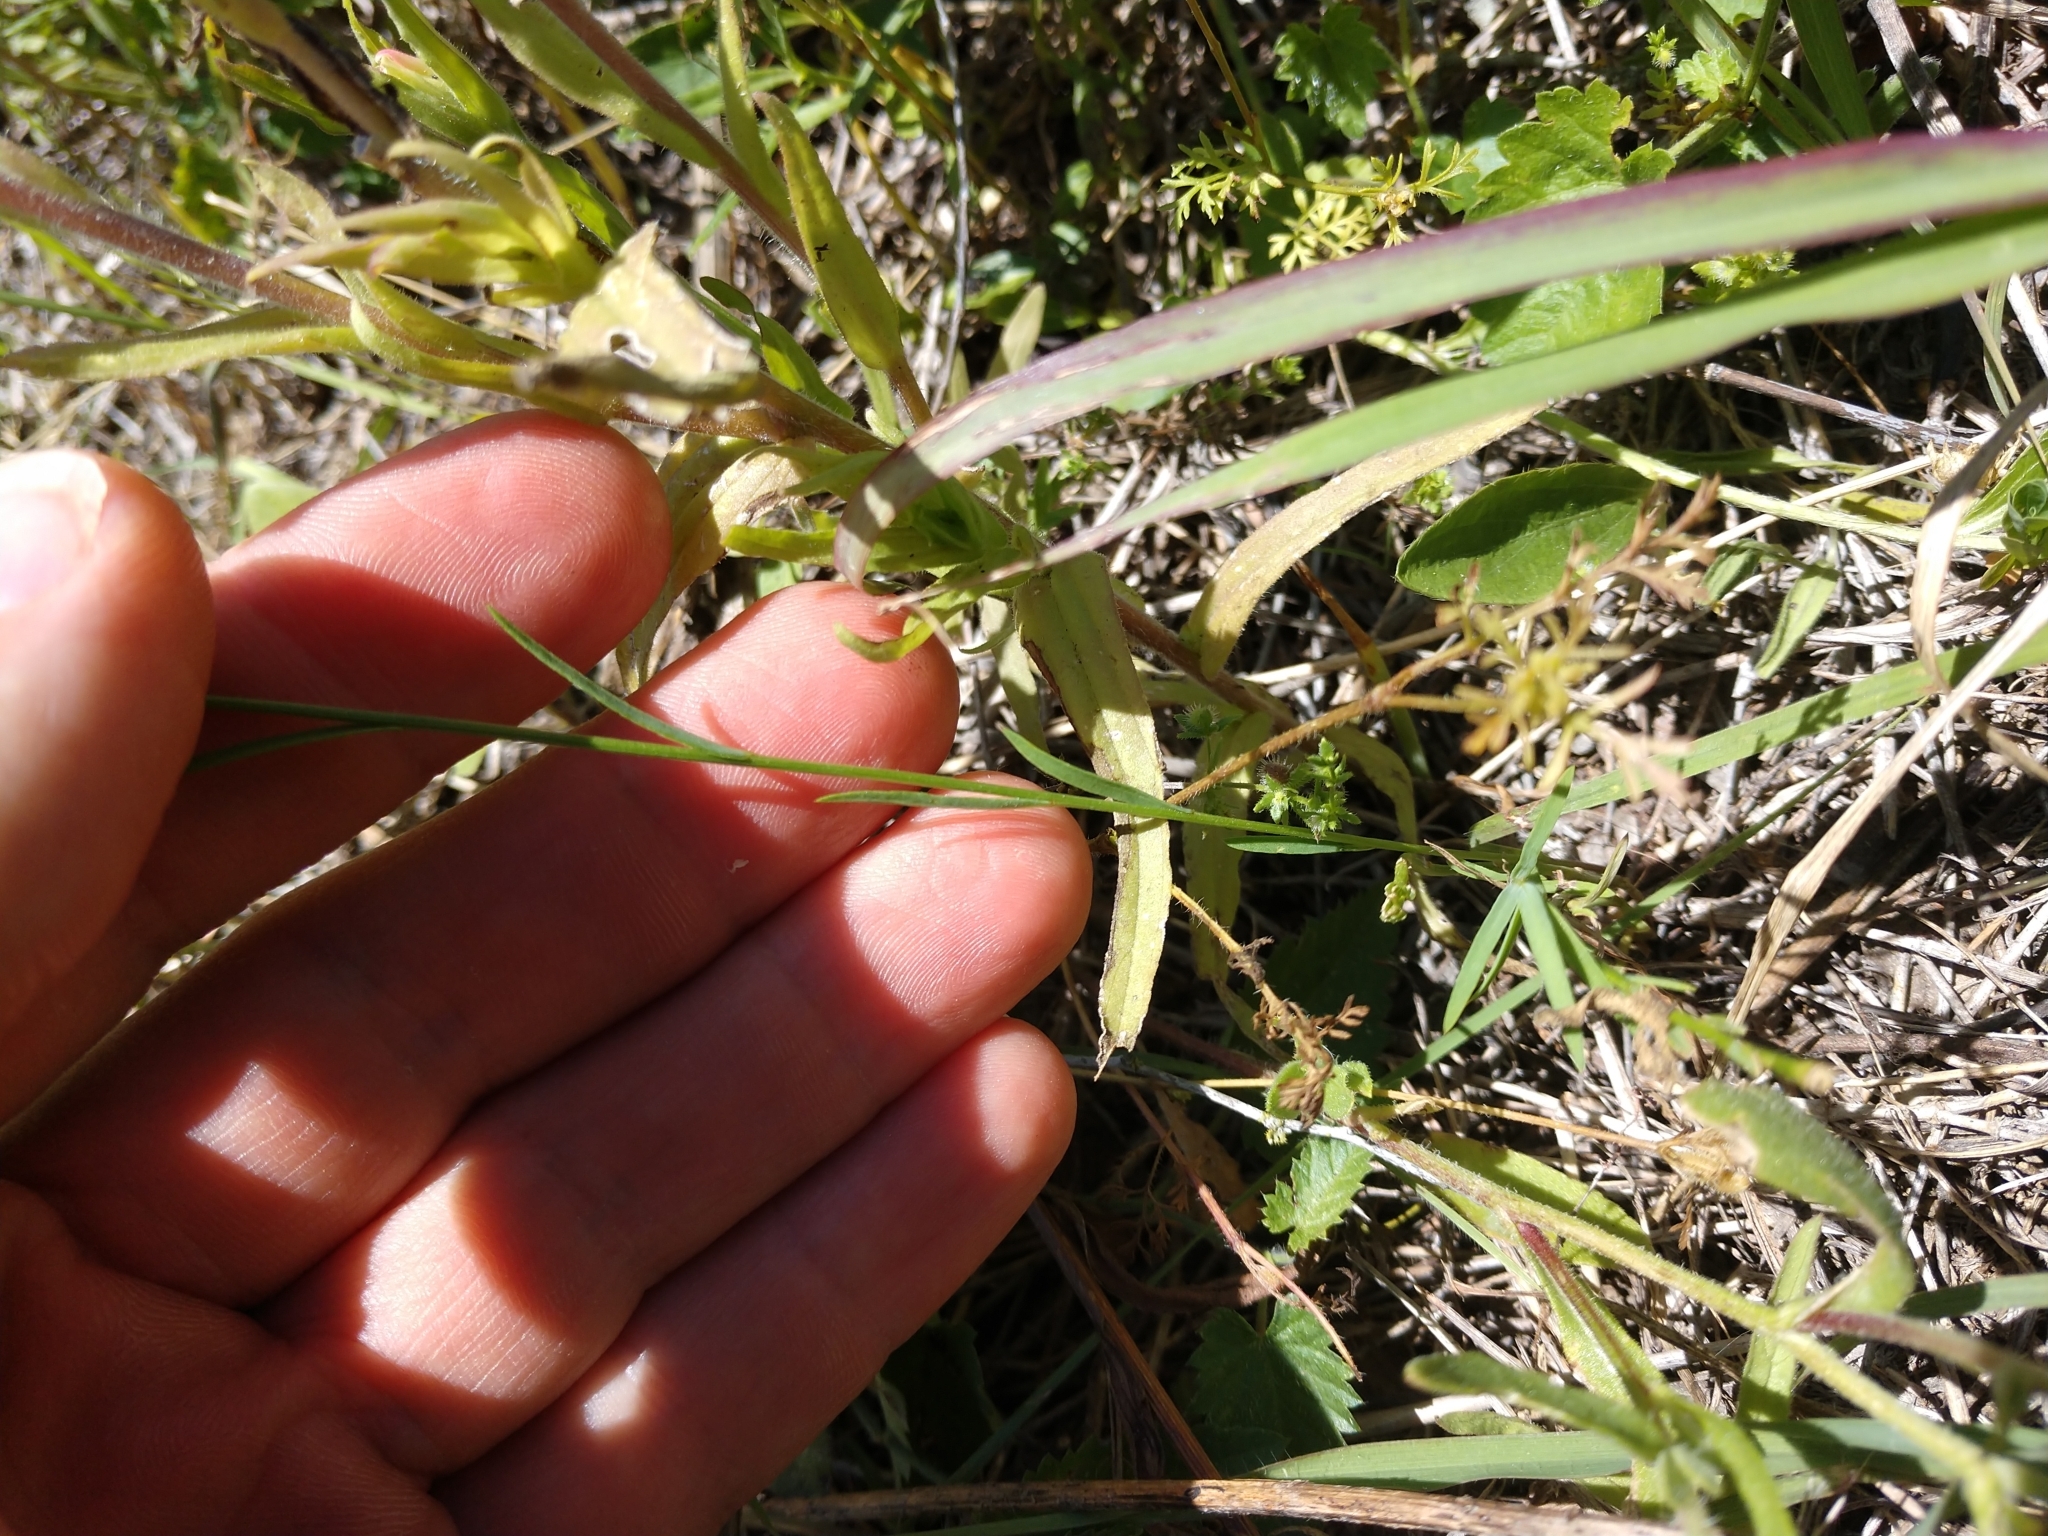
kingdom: Plantae
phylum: Tracheophyta
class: Magnoliopsida
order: Malpighiales
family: Linaceae
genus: Linum
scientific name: Linum rigidum
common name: Stiff-stem flax
